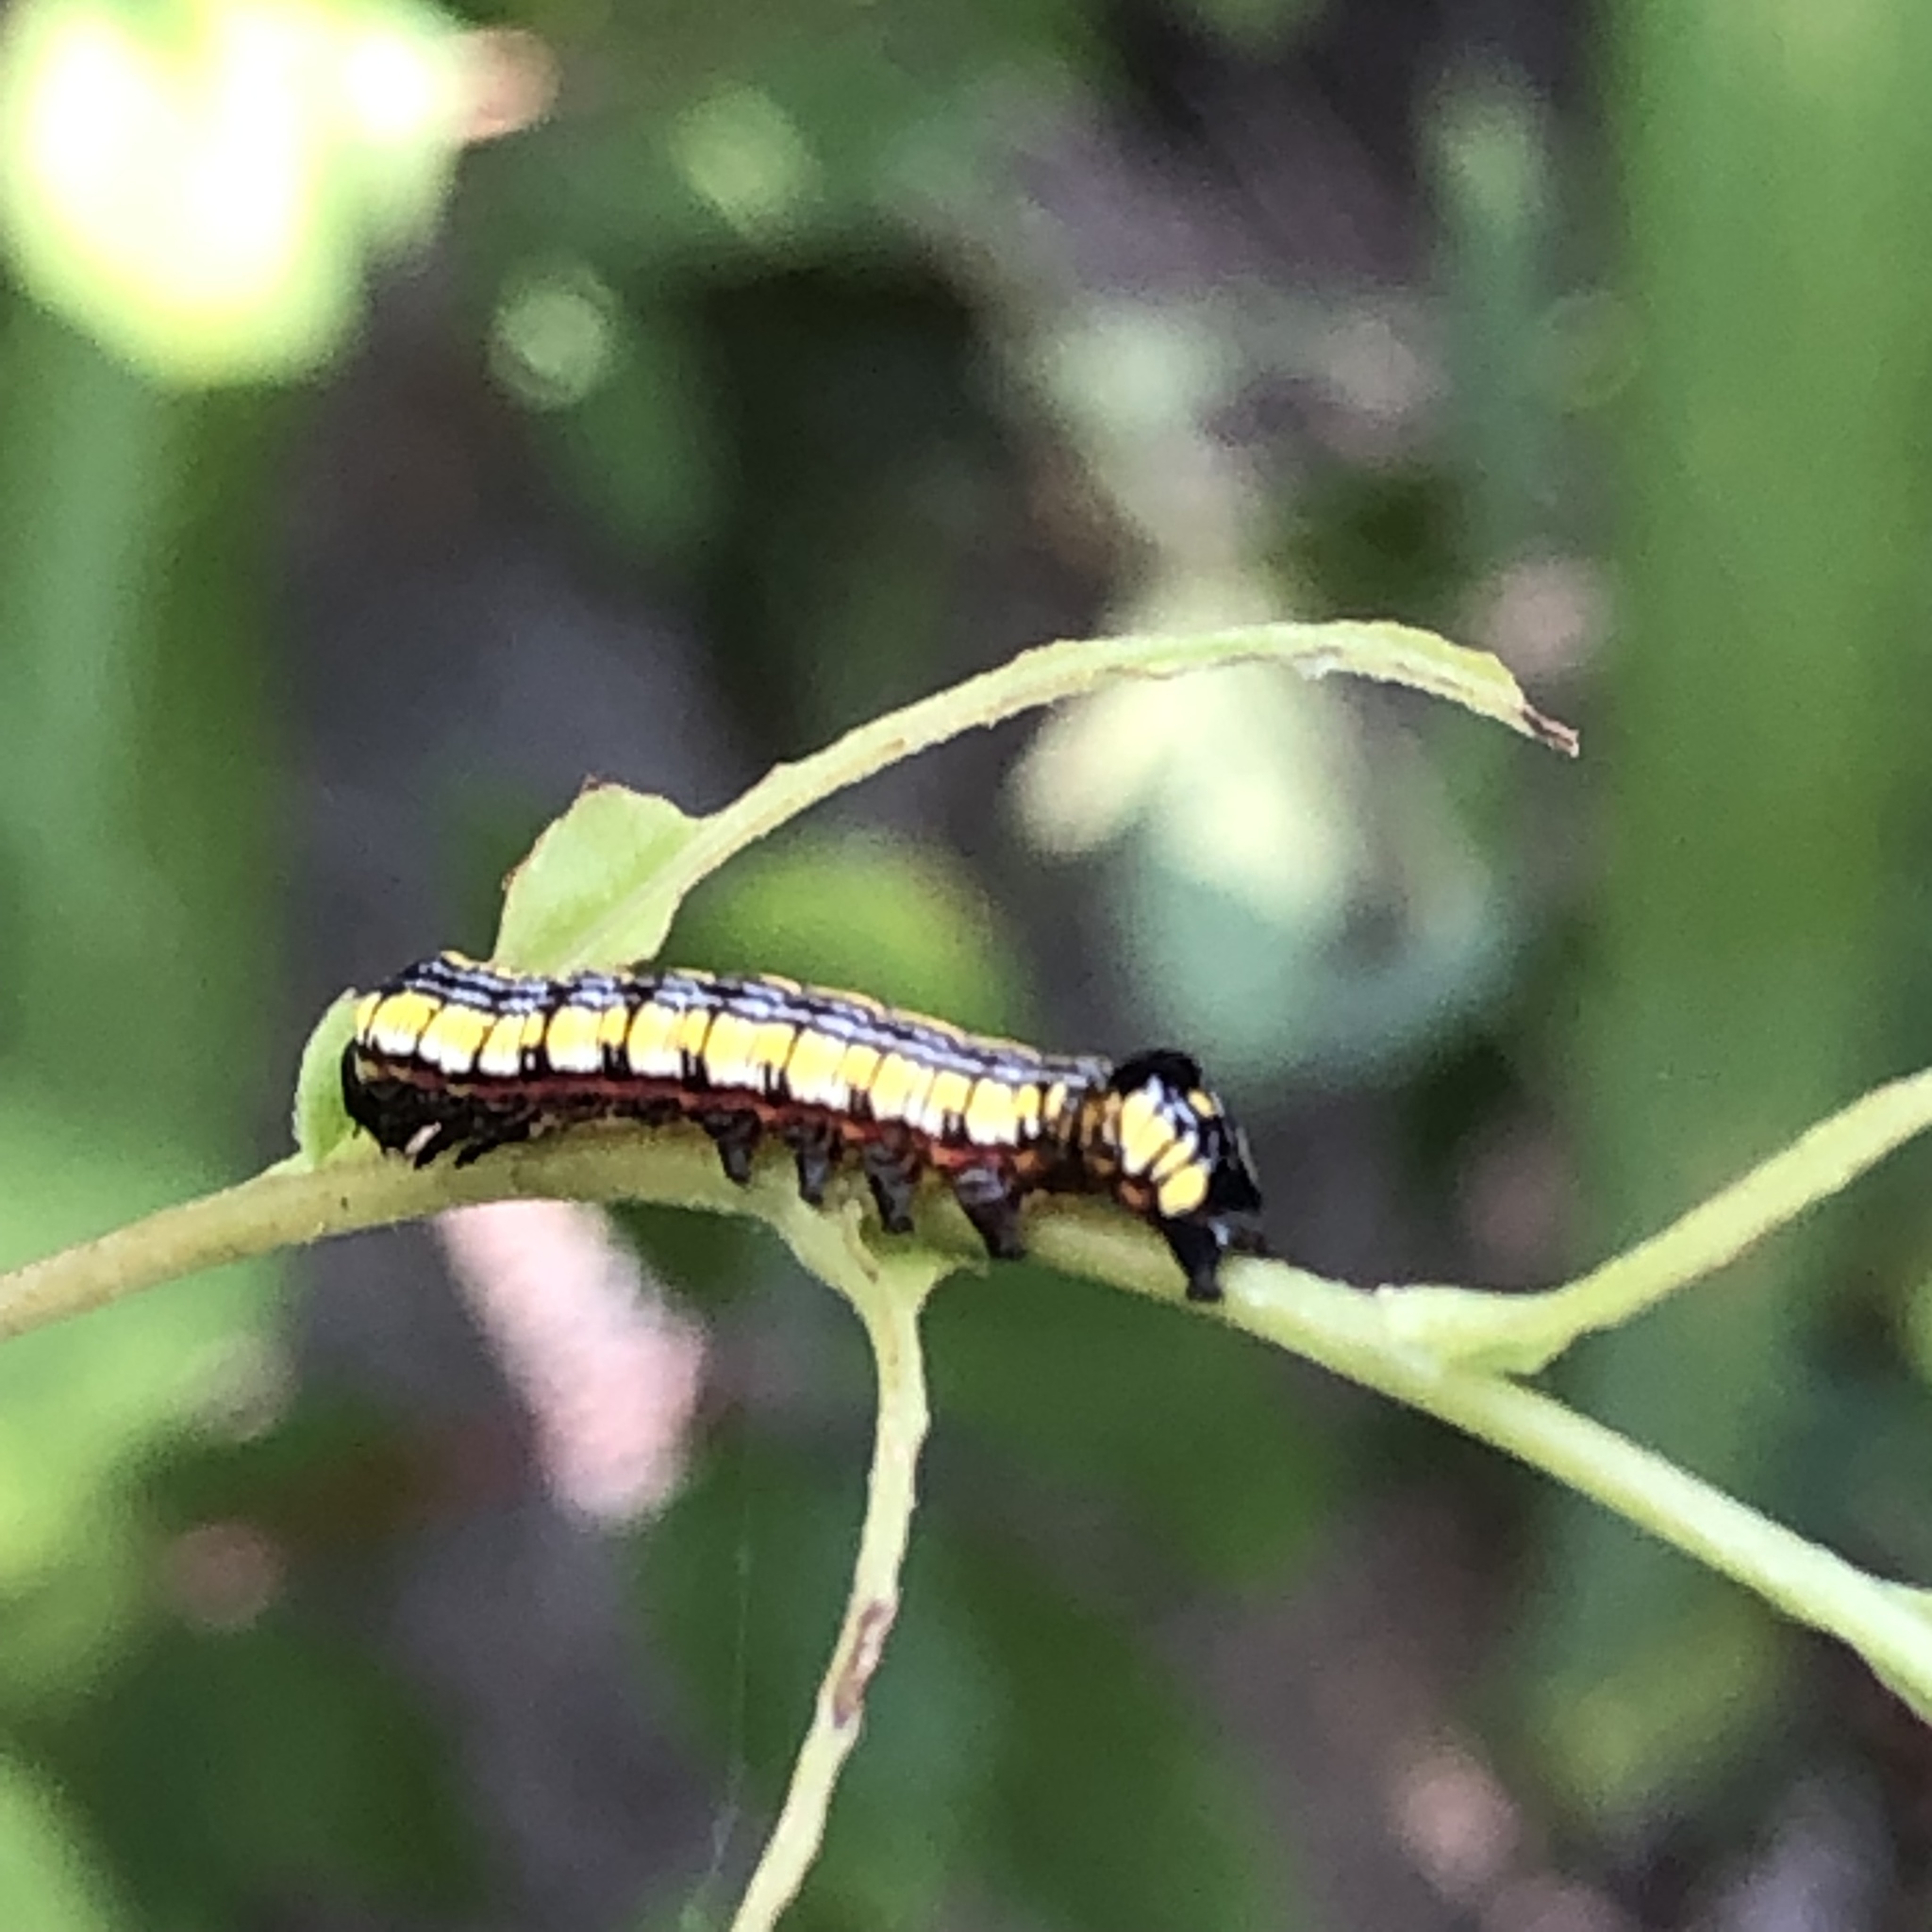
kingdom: Animalia
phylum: Arthropoda
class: Insecta
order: Lepidoptera
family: Noctuidae
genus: Cucullia
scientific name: Cucullia convexipennis
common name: Brown-hooded owlet
